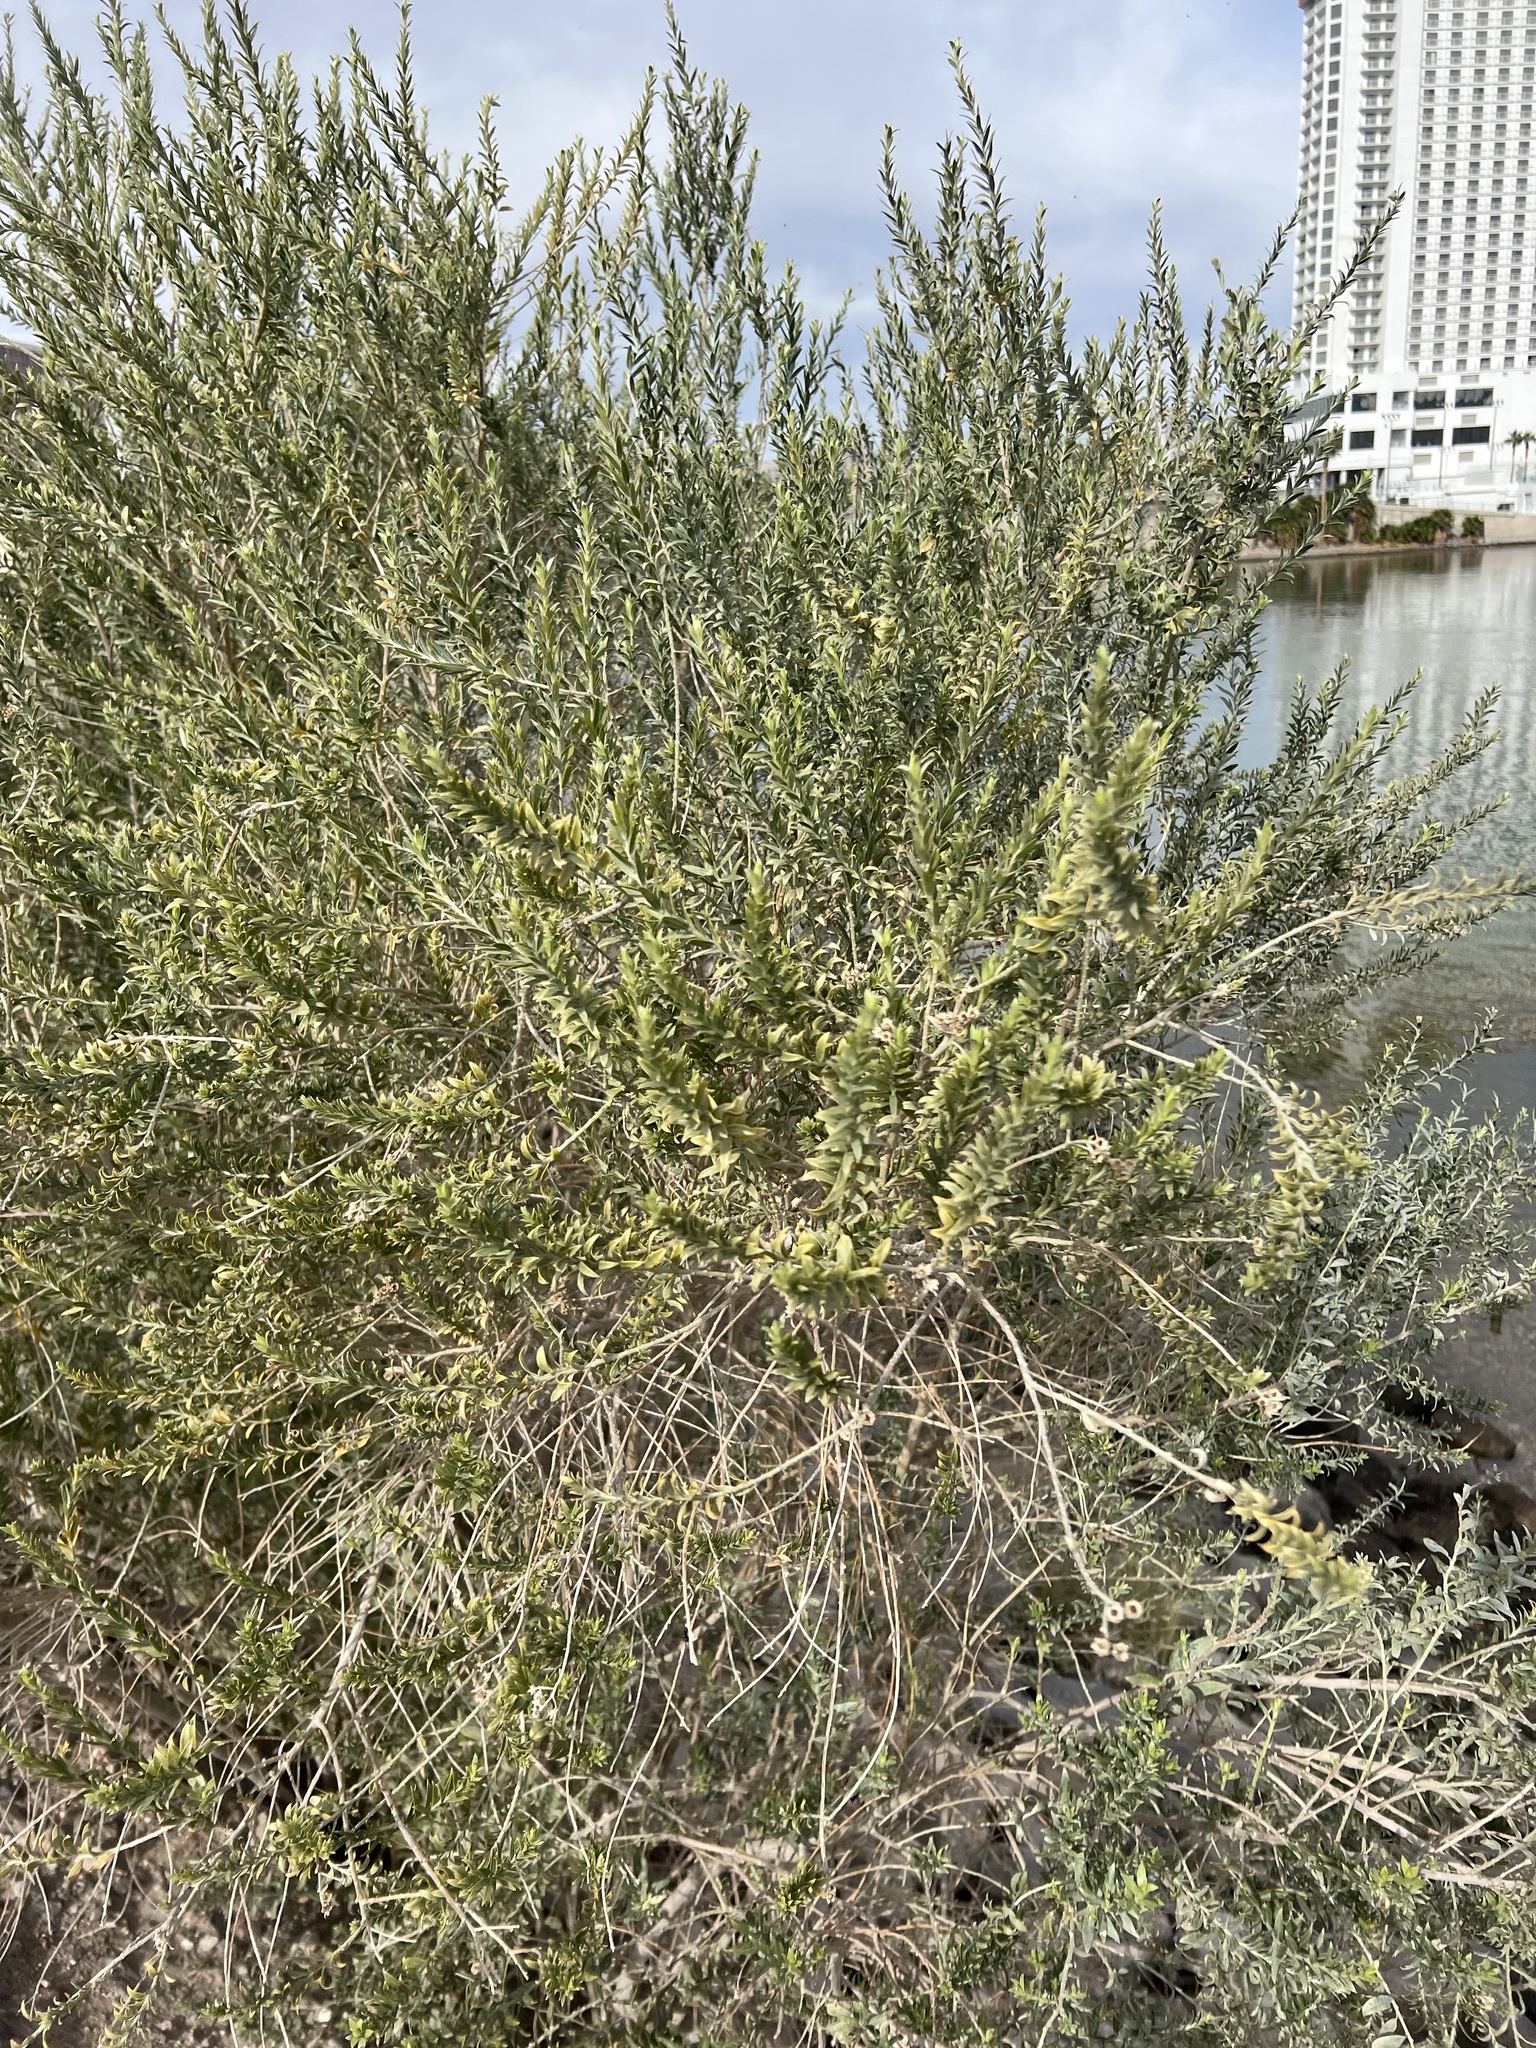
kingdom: Plantae
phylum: Tracheophyta
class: Magnoliopsida
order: Asterales
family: Asteraceae
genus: Pluchea
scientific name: Pluchea sericea
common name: Arrow-weed
